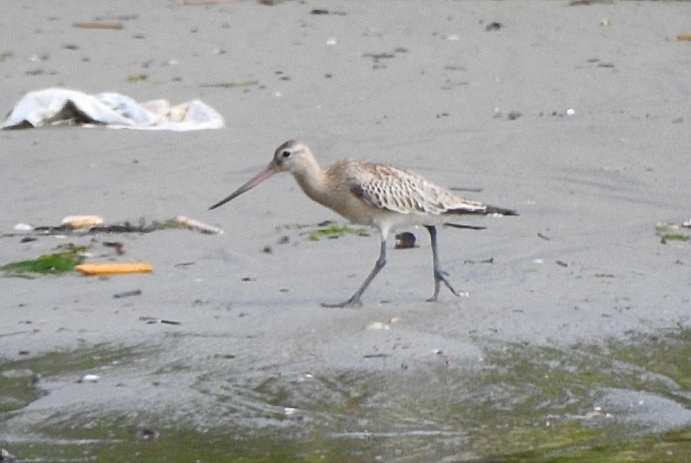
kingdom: Animalia
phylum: Chordata
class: Aves
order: Charadriiformes
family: Scolopacidae
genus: Limosa
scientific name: Limosa lapponica
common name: Bar-tailed godwit
